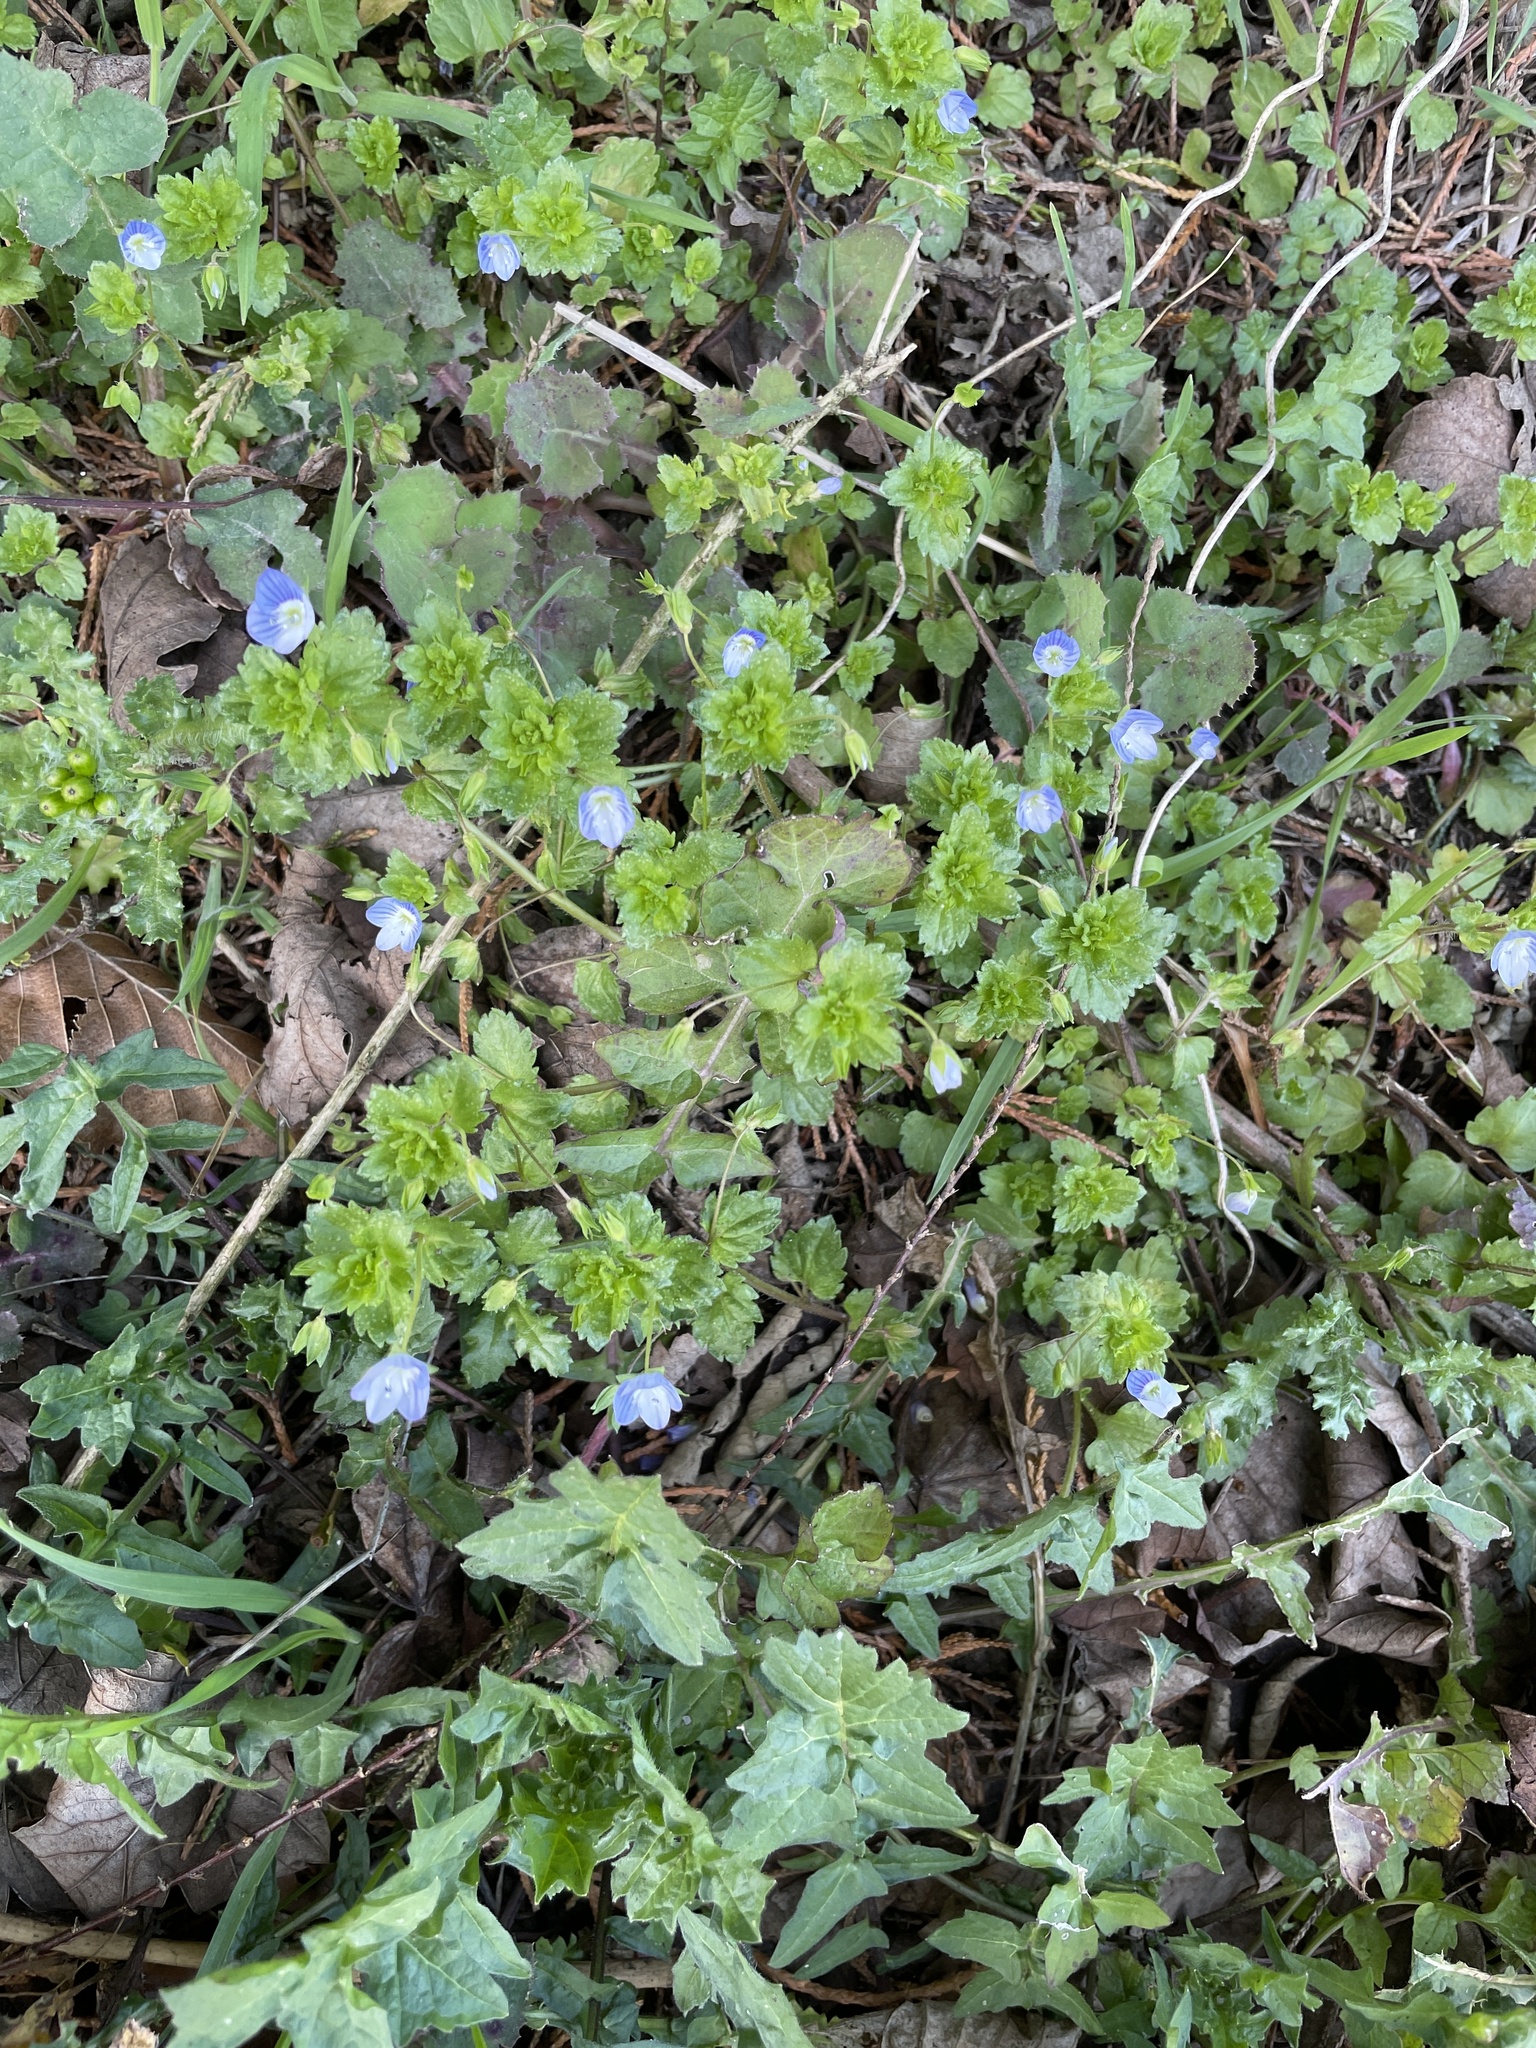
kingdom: Plantae
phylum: Tracheophyta
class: Magnoliopsida
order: Lamiales
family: Plantaginaceae
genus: Veronica
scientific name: Veronica persica
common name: Common field-speedwell
